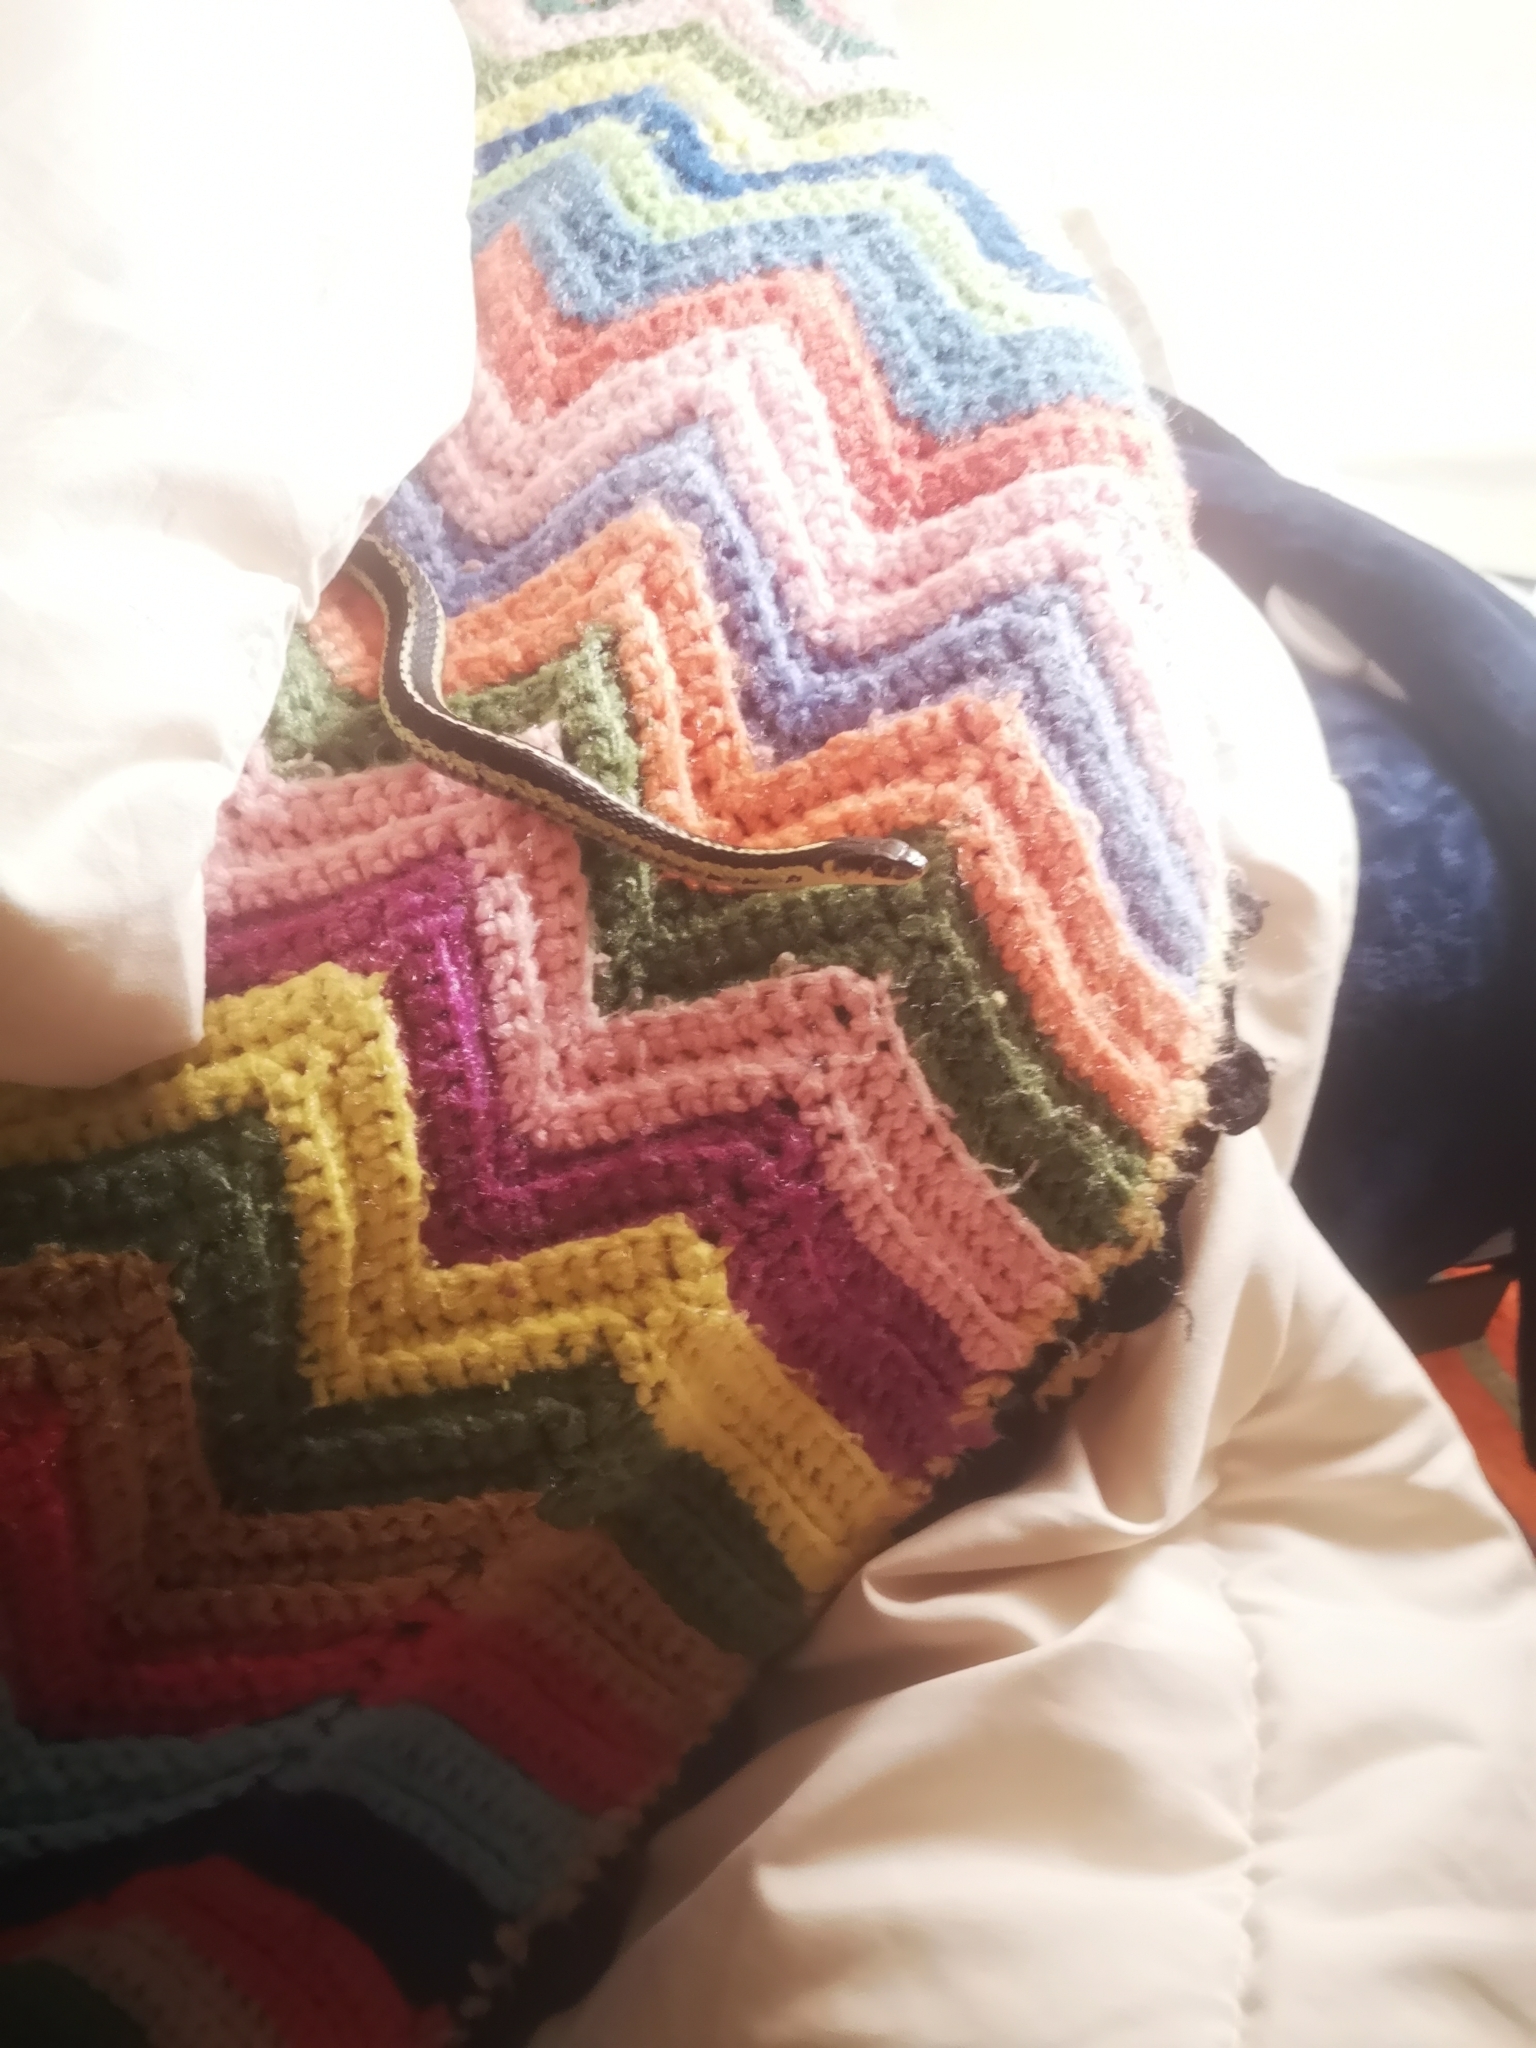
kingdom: Animalia
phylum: Chordata
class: Squamata
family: Colubridae
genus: Thamnophis
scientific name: Thamnophis sirtalis
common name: Common garter snake
